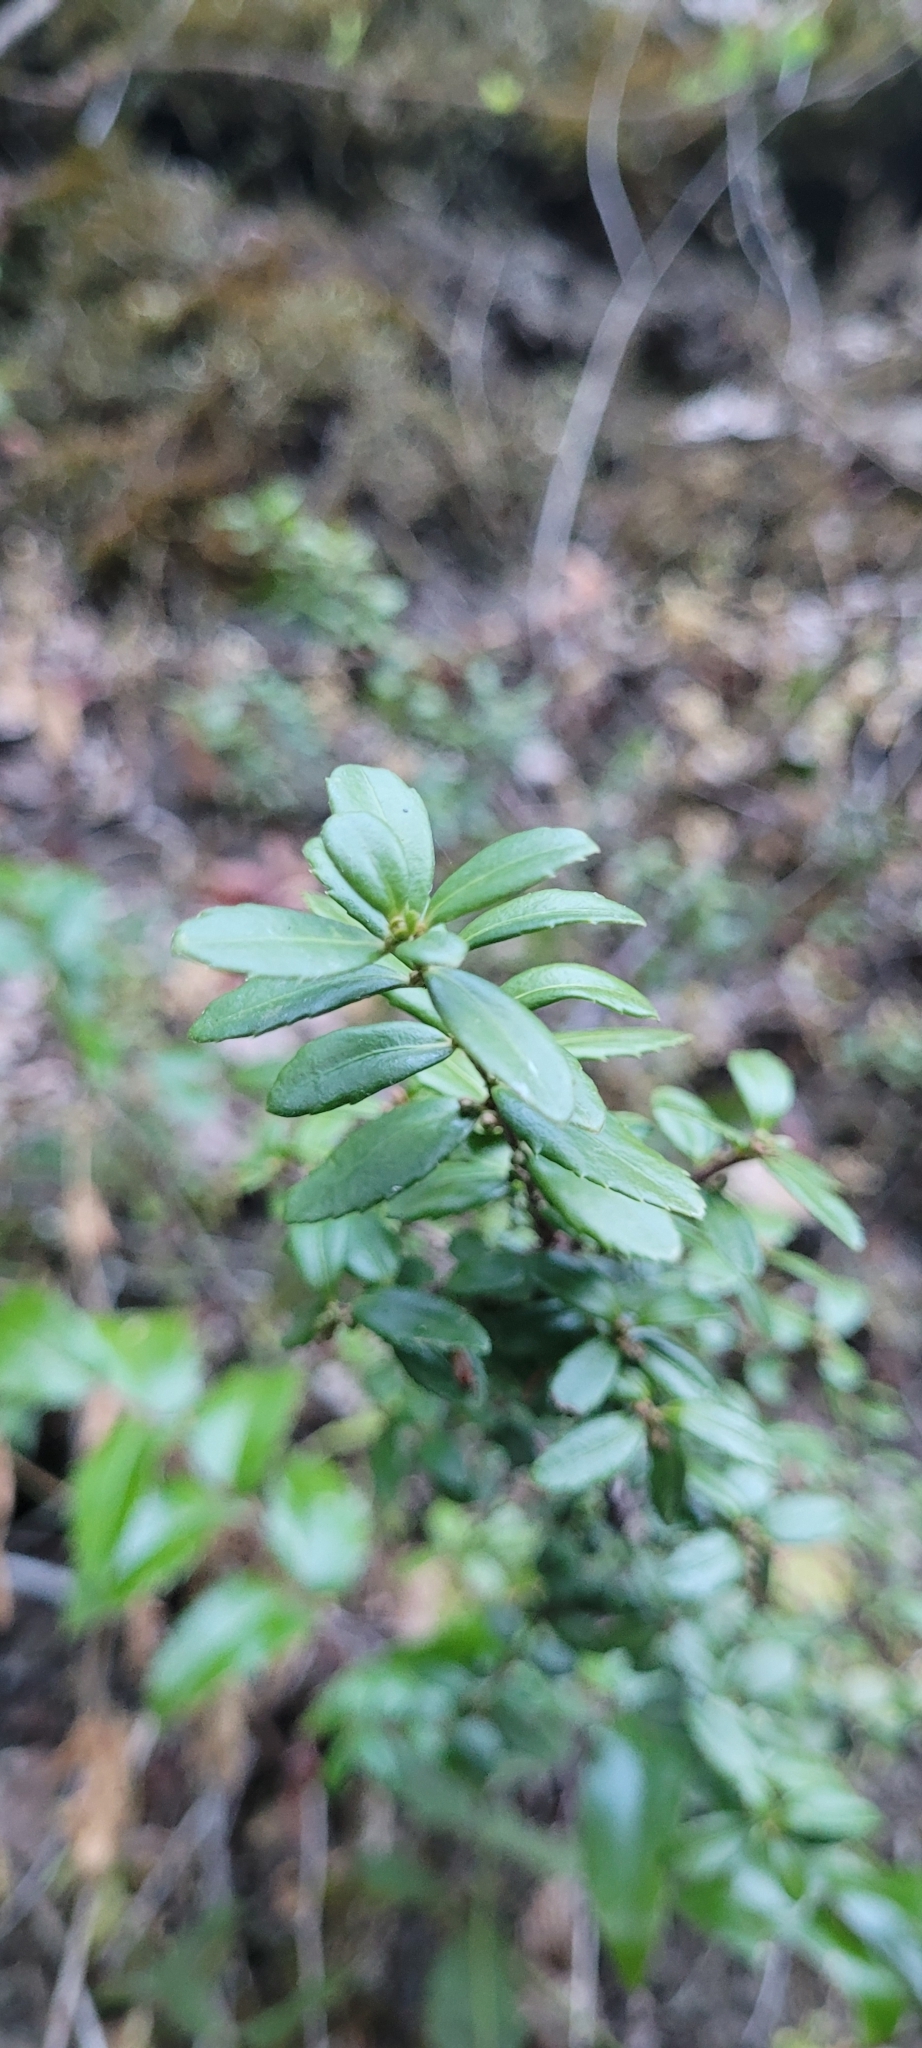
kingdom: Plantae
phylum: Tracheophyta
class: Magnoliopsida
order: Celastrales
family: Celastraceae
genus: Paxistima
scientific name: Paxistima myrsinites
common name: Mountain-lover
